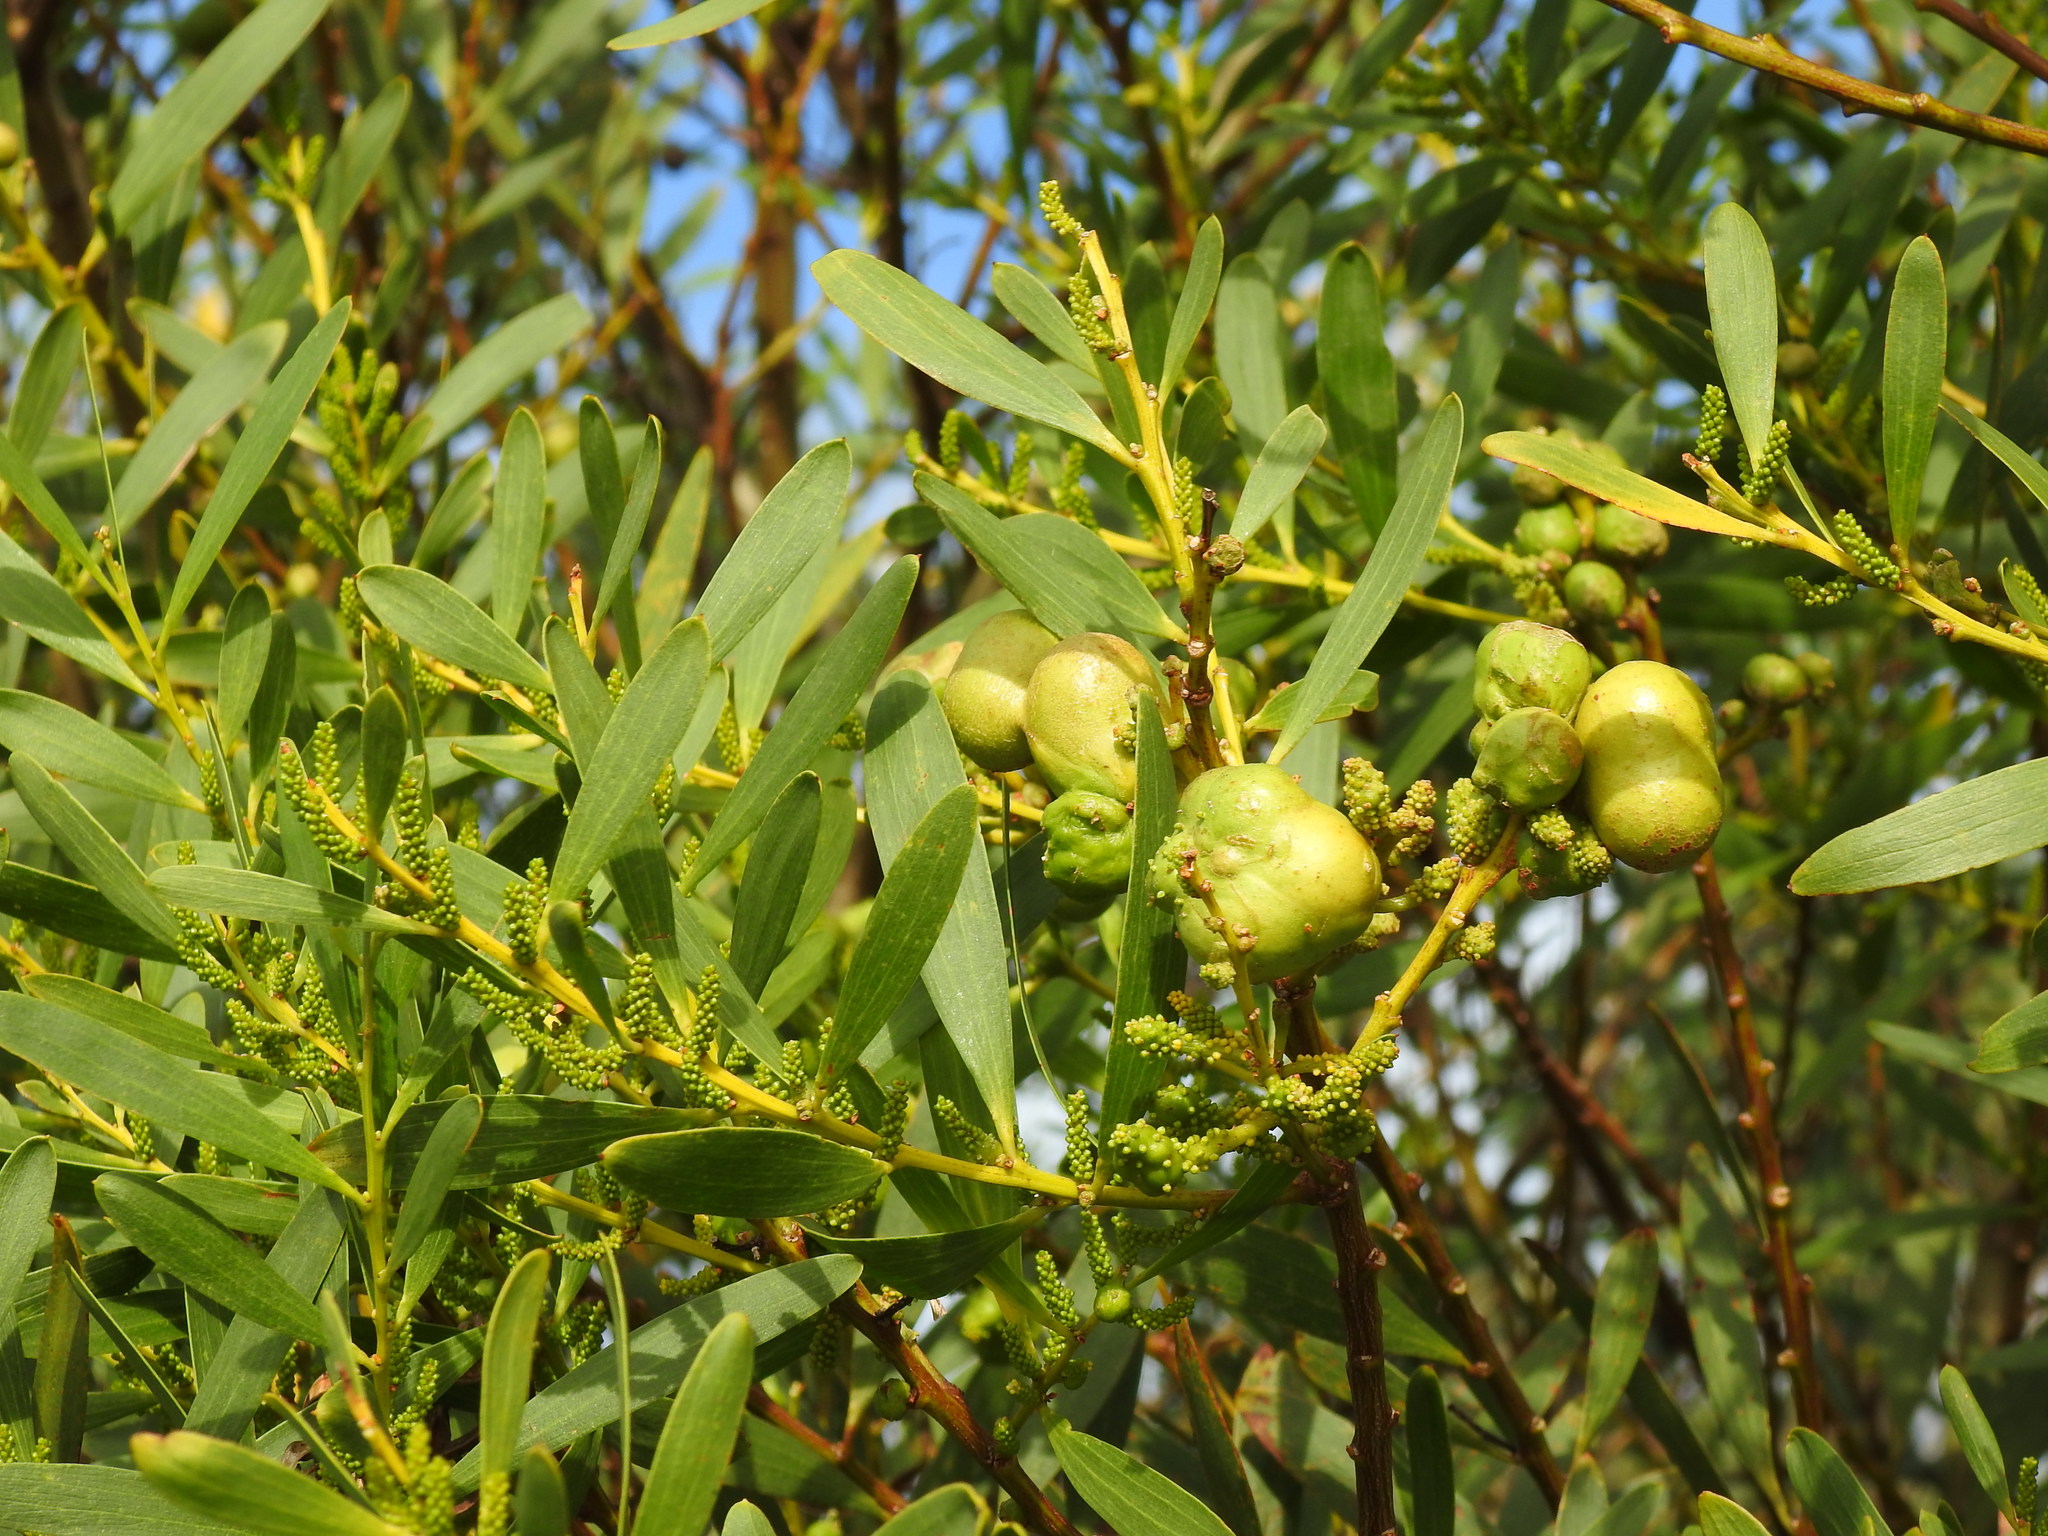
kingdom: Plantae
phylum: Tracheophyta
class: Magnoliopsida
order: Fabales
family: Fabaceae
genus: Acacia
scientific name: Acacia longifolia
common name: Sydney golden wattle
